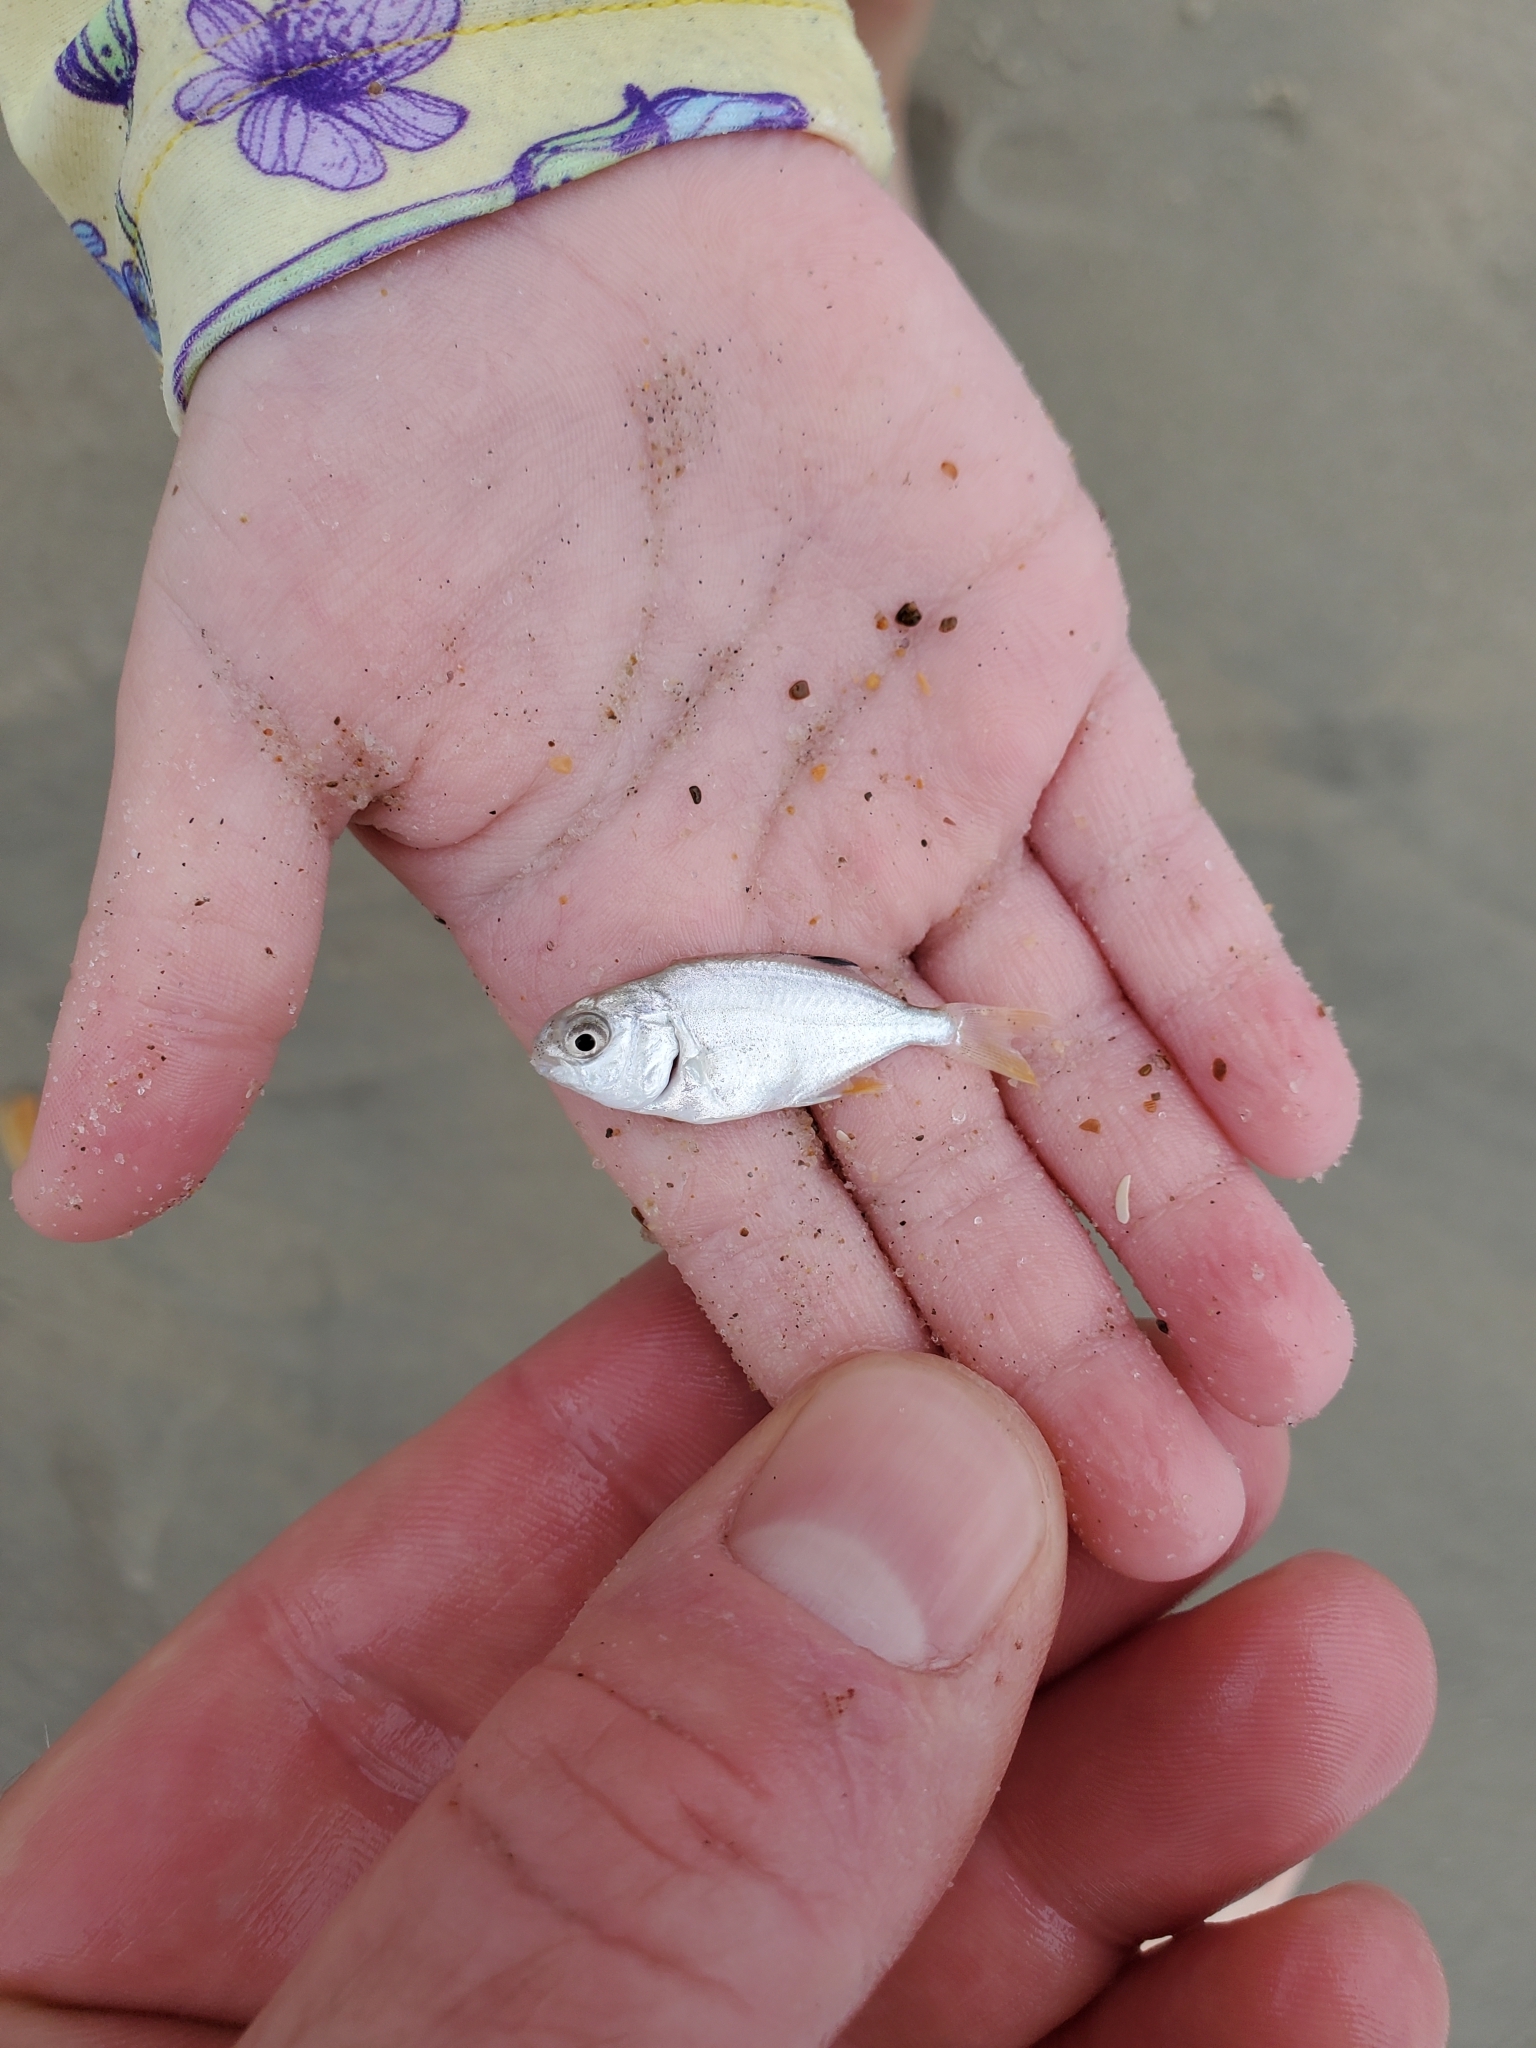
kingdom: Animalia
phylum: Chordata
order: Perciformes
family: Carangidae
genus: Trachinotus
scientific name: Trachinotus carolinus
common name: Florida pompano
